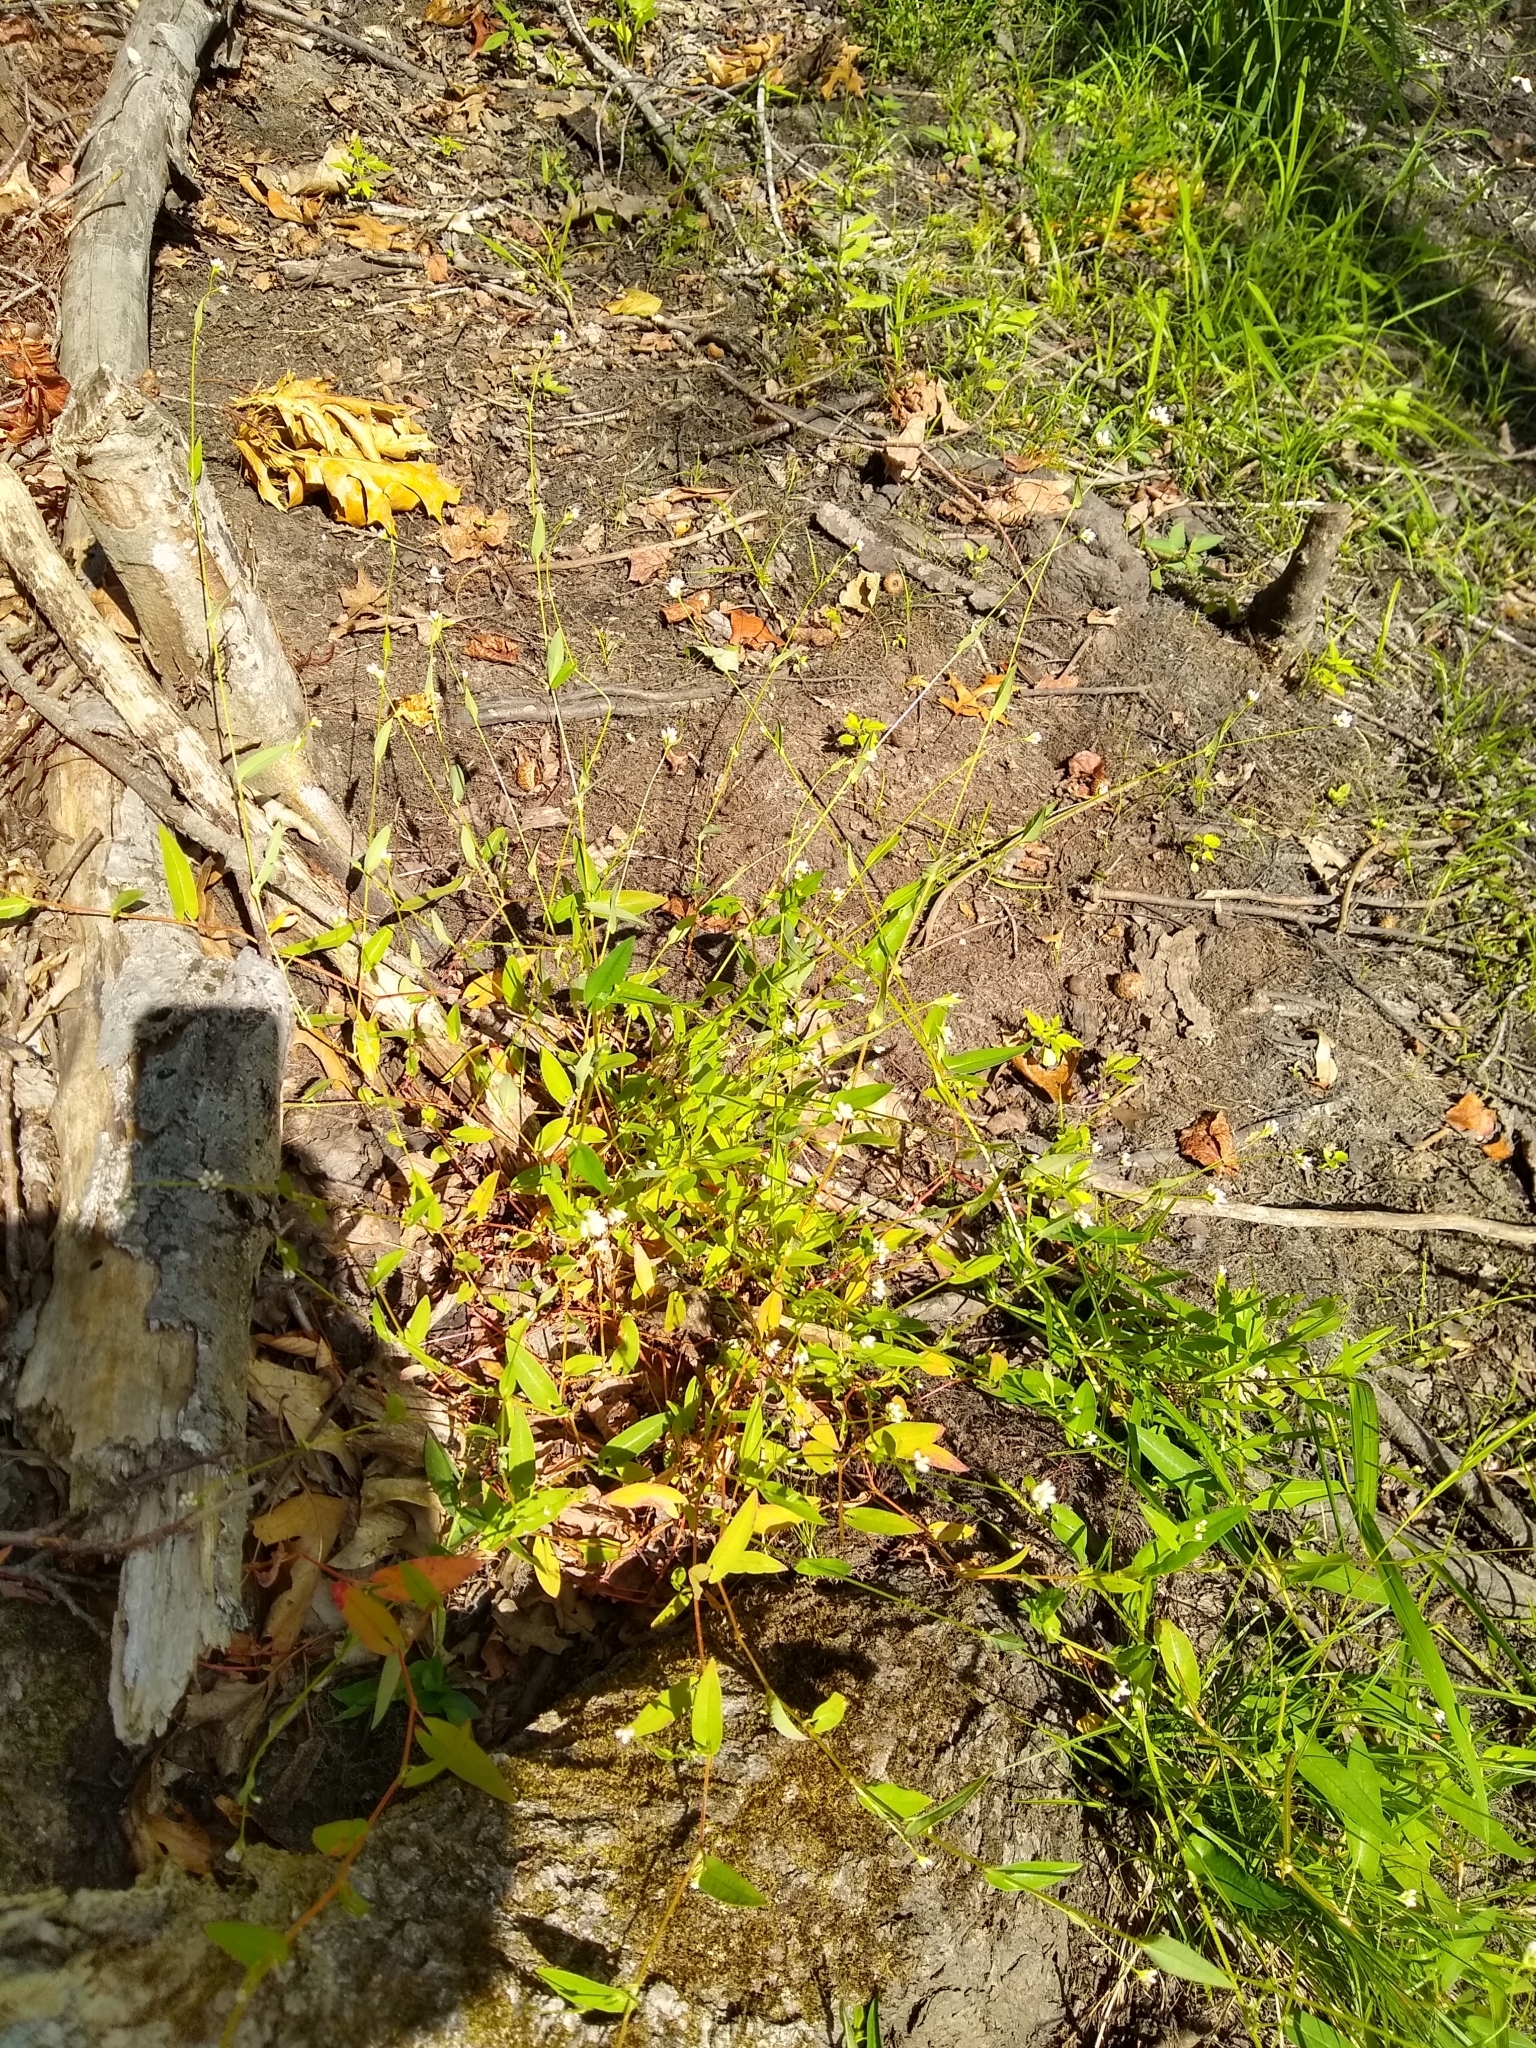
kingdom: Plantae
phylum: Tracheophyta
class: Magnoliopsida
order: Caryophyllales
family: Polygonaceae
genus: Persicaria
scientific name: Persicaria sagittata
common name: American tearthumb
